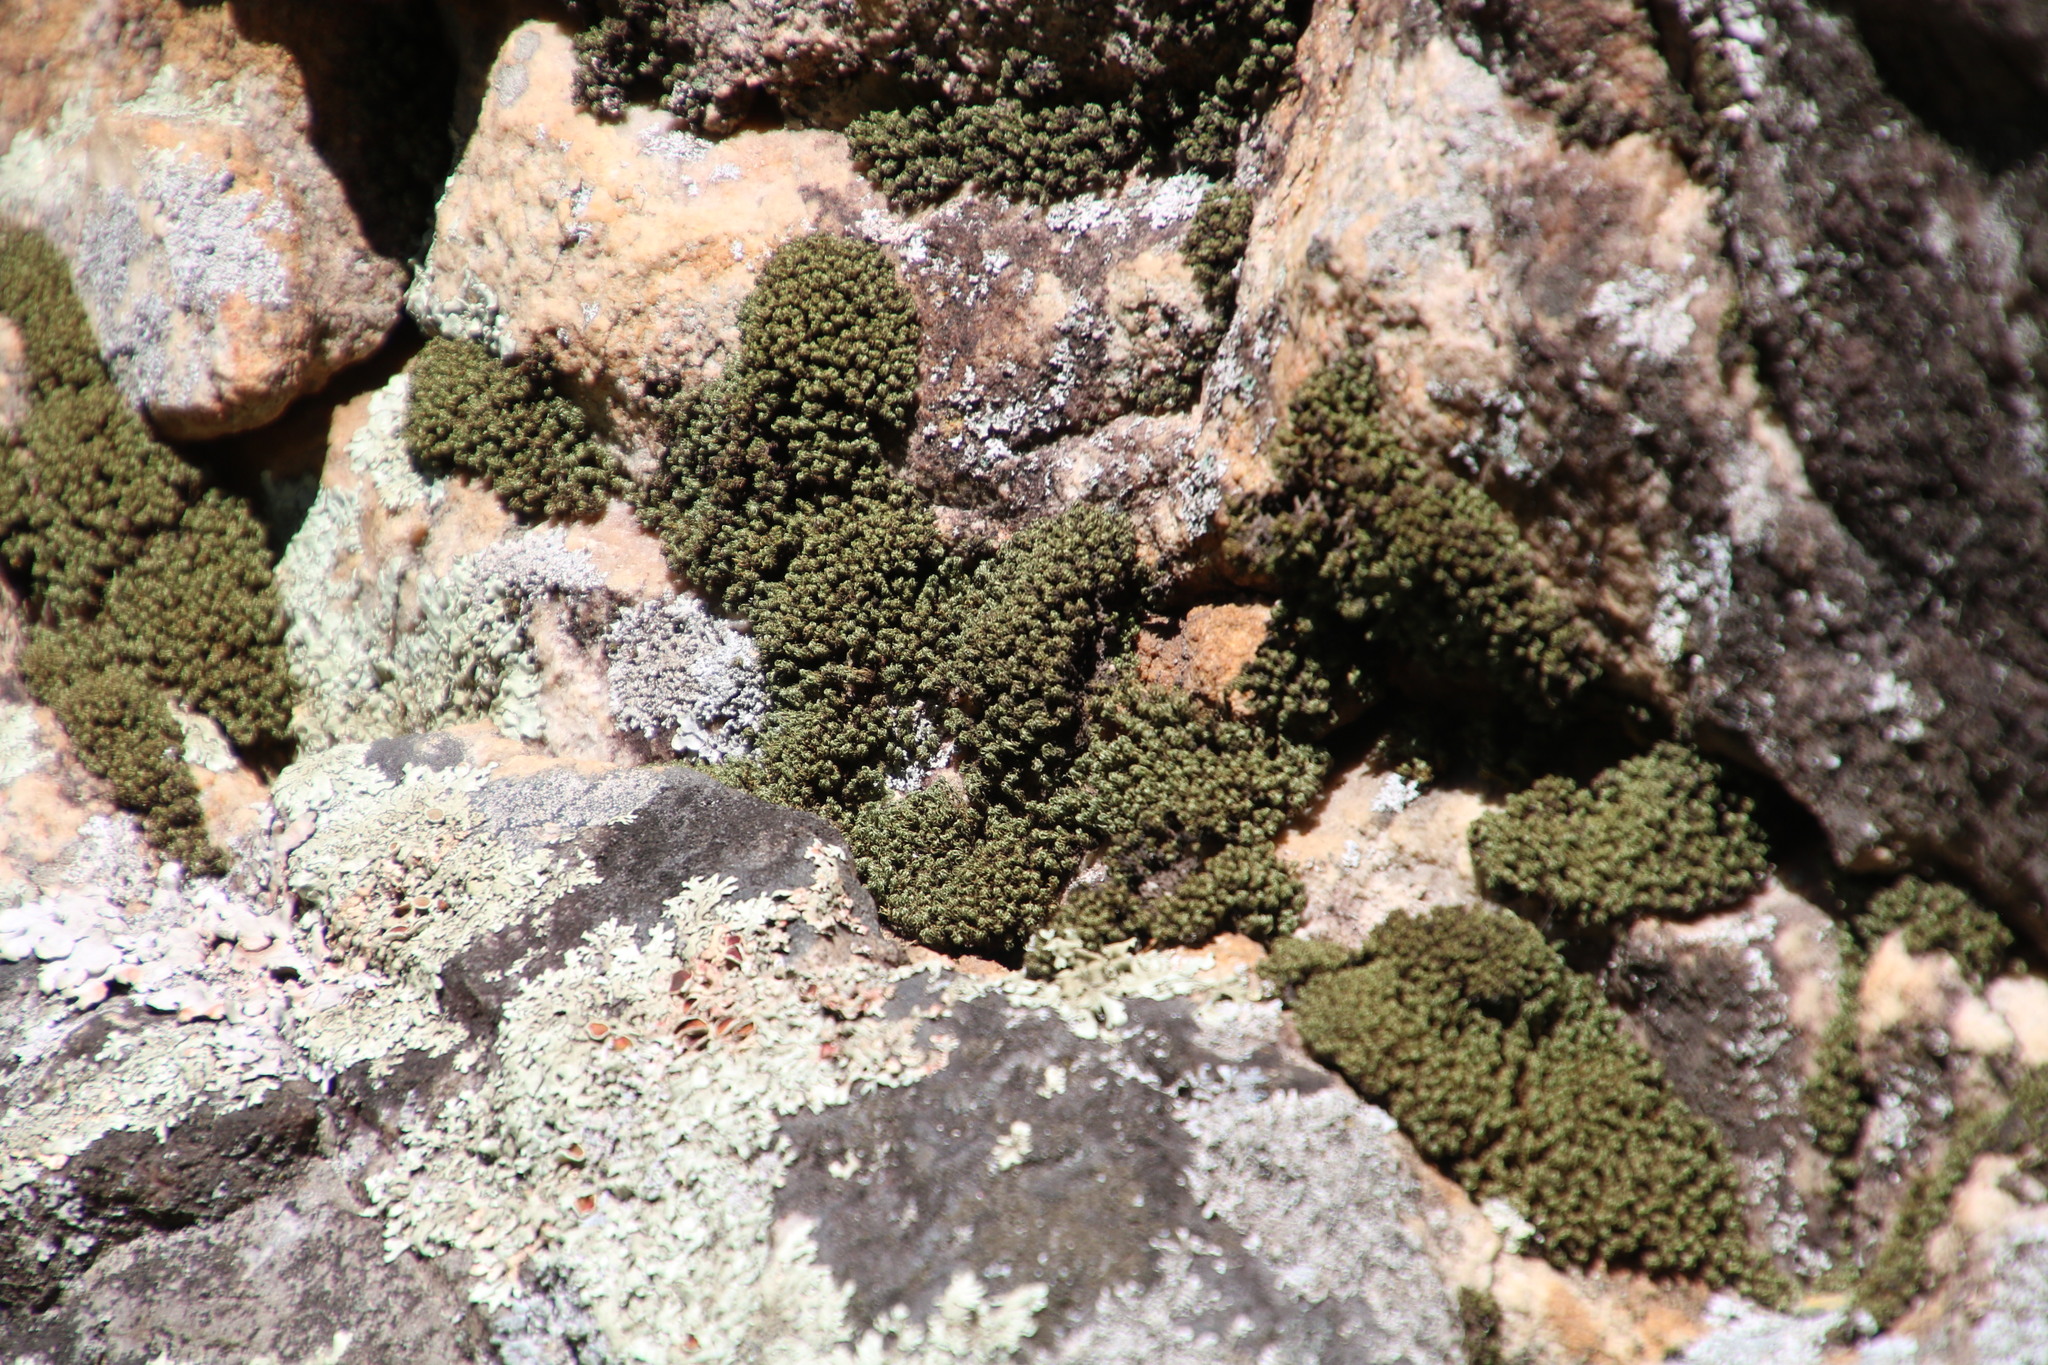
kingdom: Plantae
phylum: Bryophyta
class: Bryopsida
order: Dicranales
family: Hypodontiaceae
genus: Hypodontium
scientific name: Hypodontium dregei
